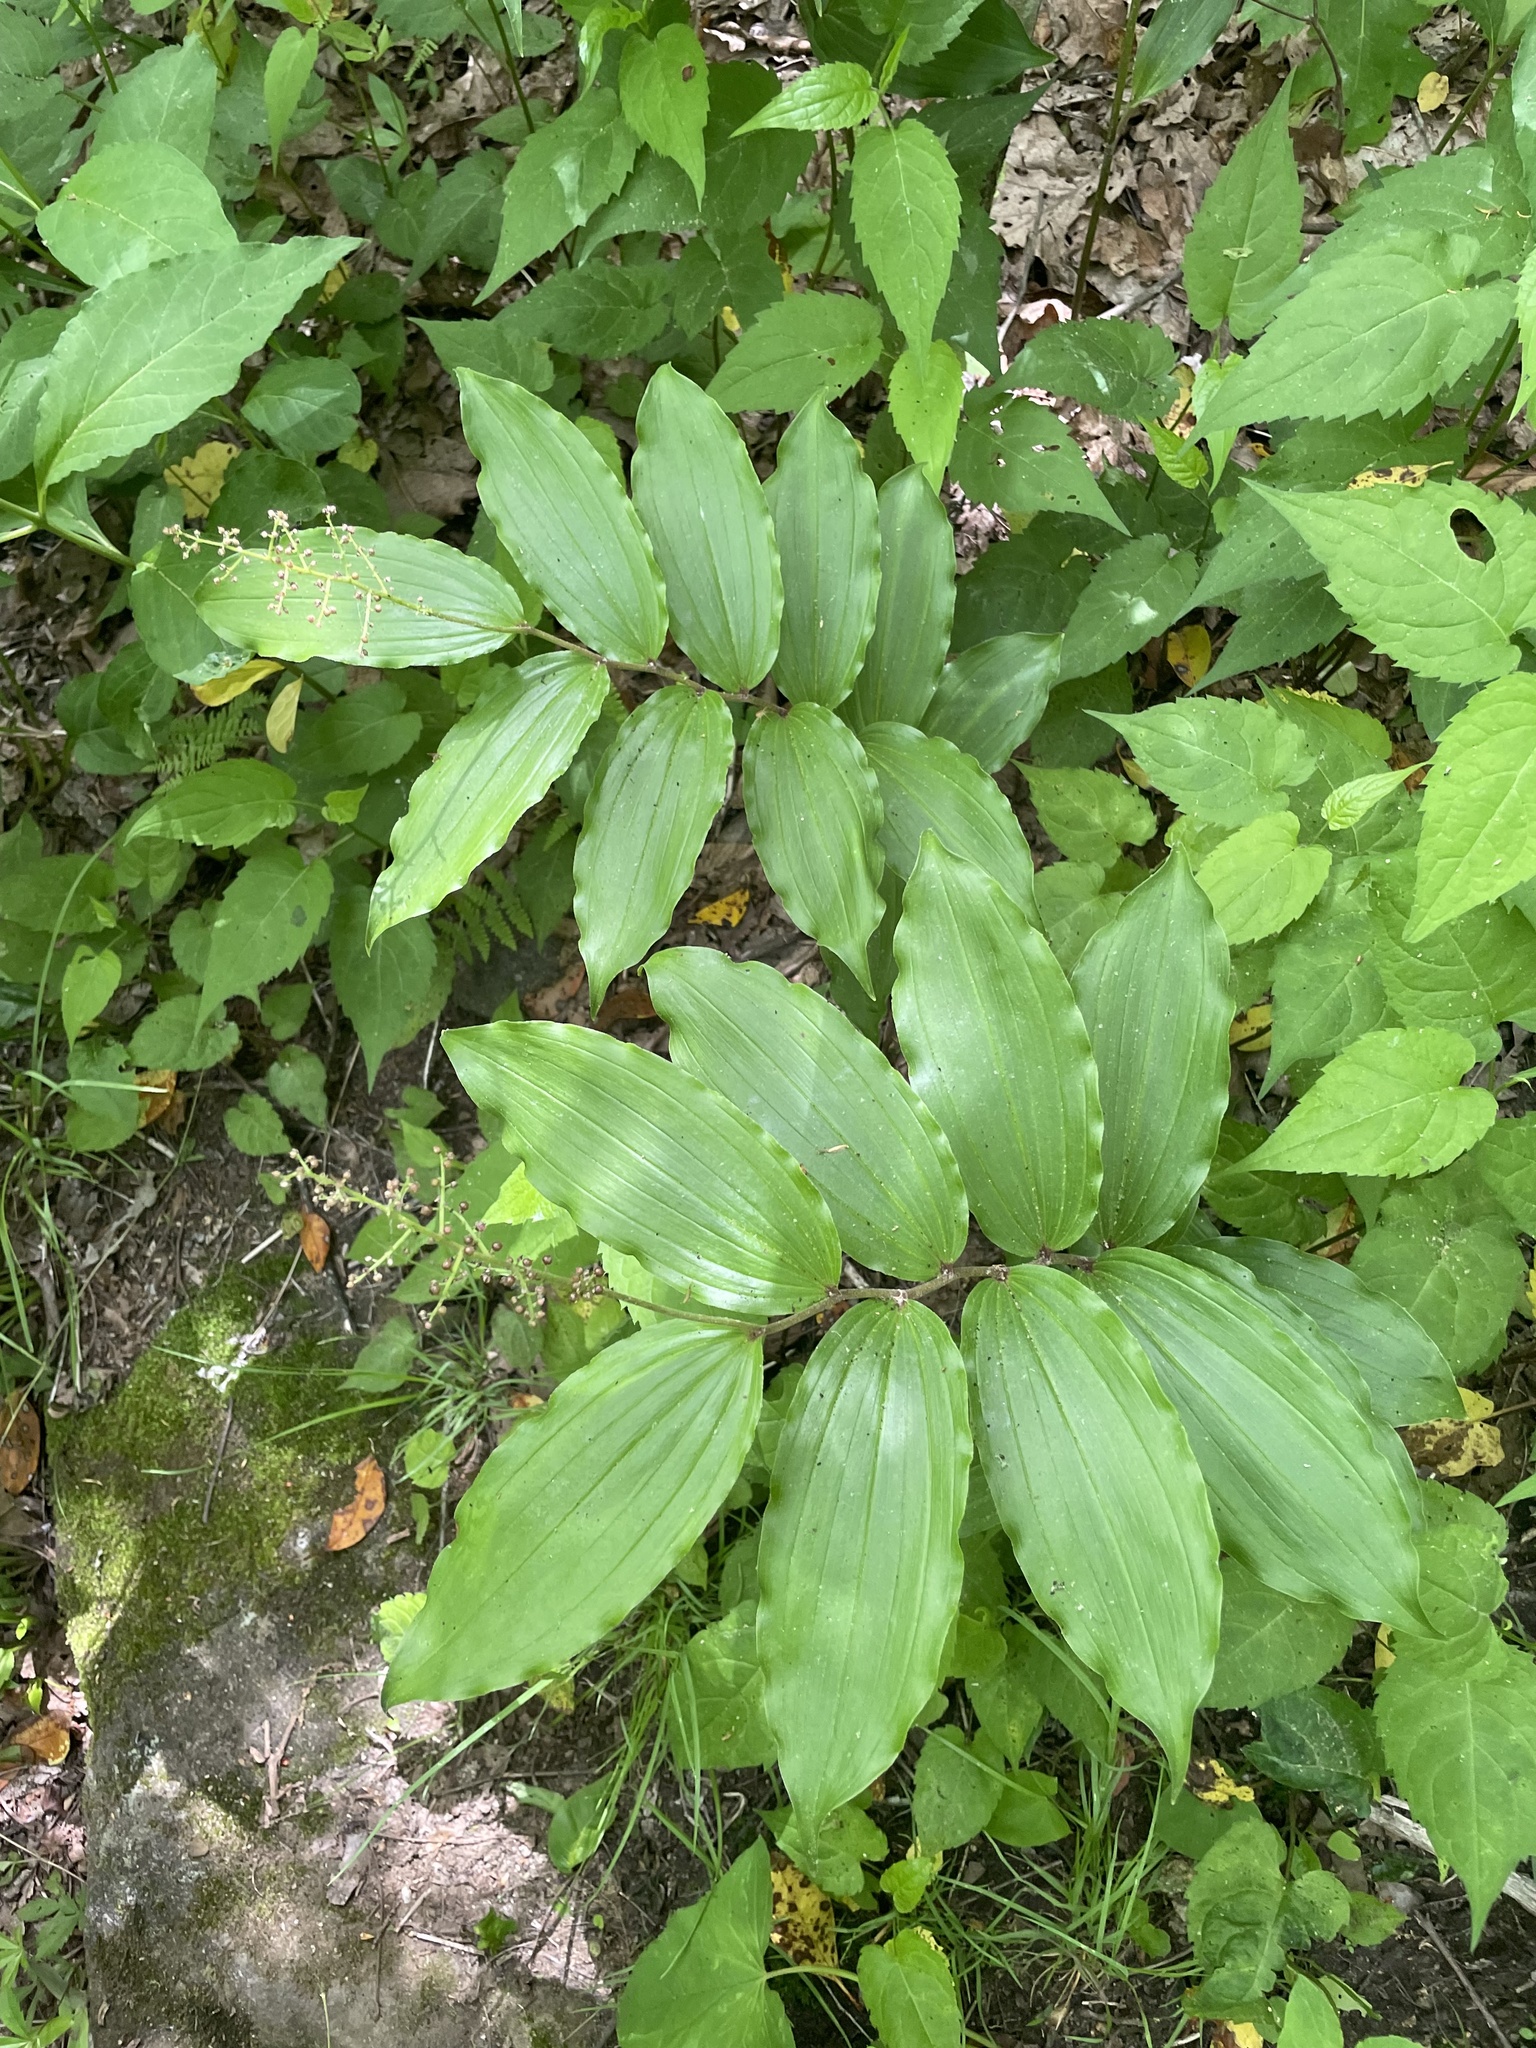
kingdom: Plantae
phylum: Tracheophyta
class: Liliopsida
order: Asparagales
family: Asparagaceae
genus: Maianthemum
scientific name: Maianthemum racemosum
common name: False spikenard
